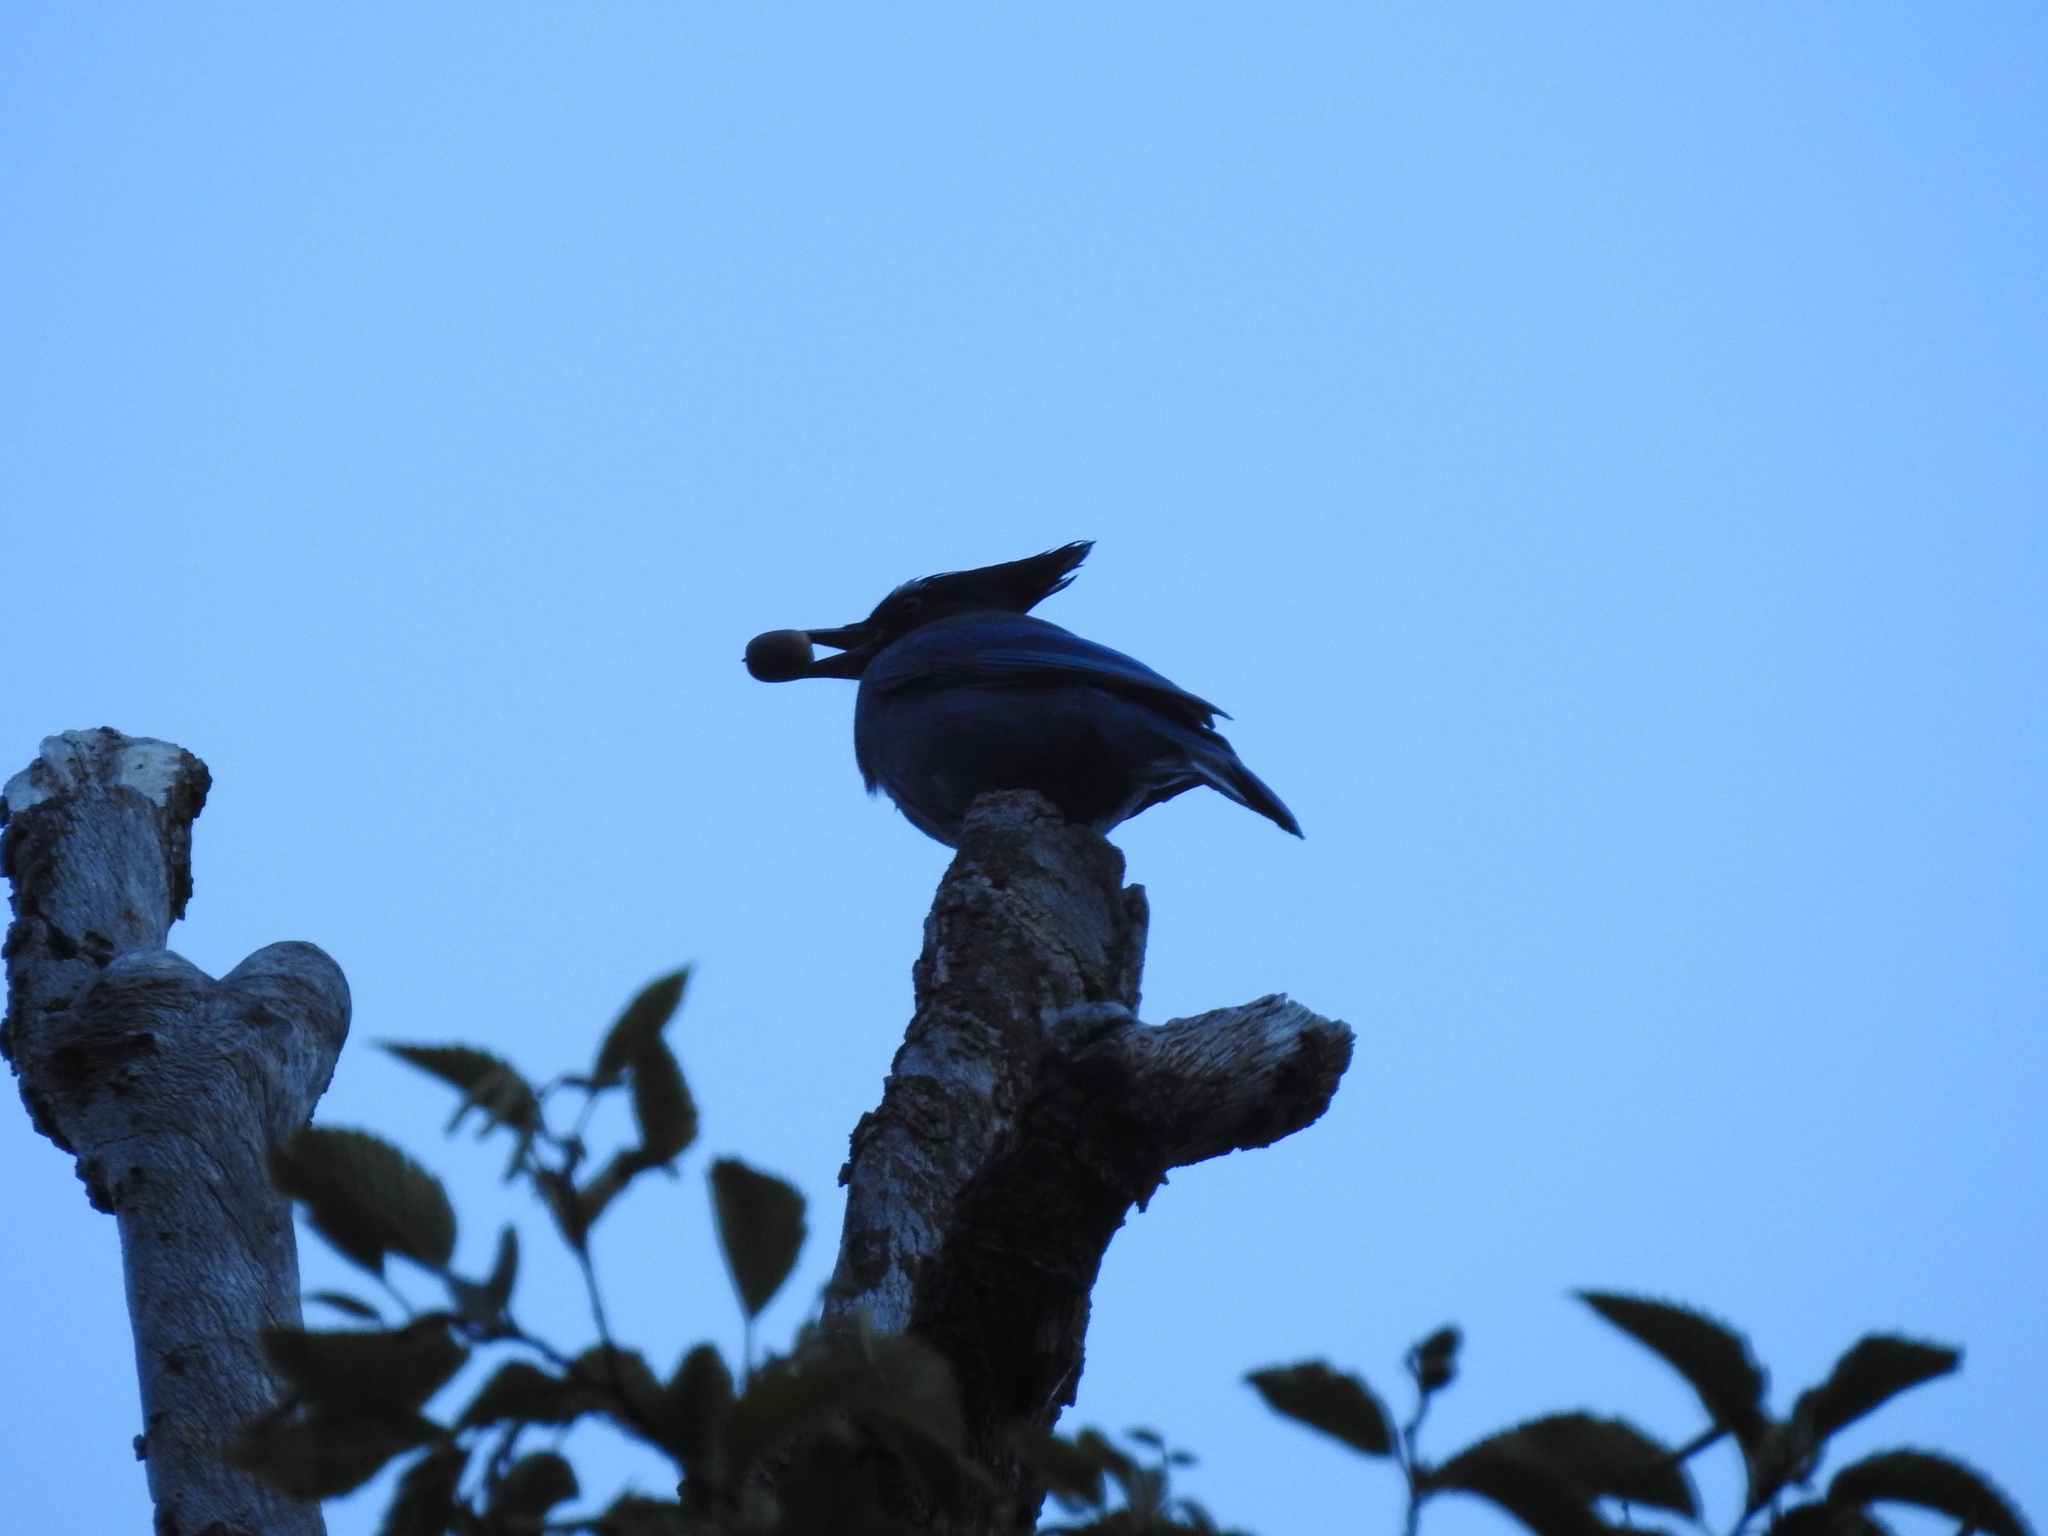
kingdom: Animalia
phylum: Chordata
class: Aves
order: Passeriformes
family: Corvidae
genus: Cyanocitta
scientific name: Cyanocitta stelleri
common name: Steller's jay
